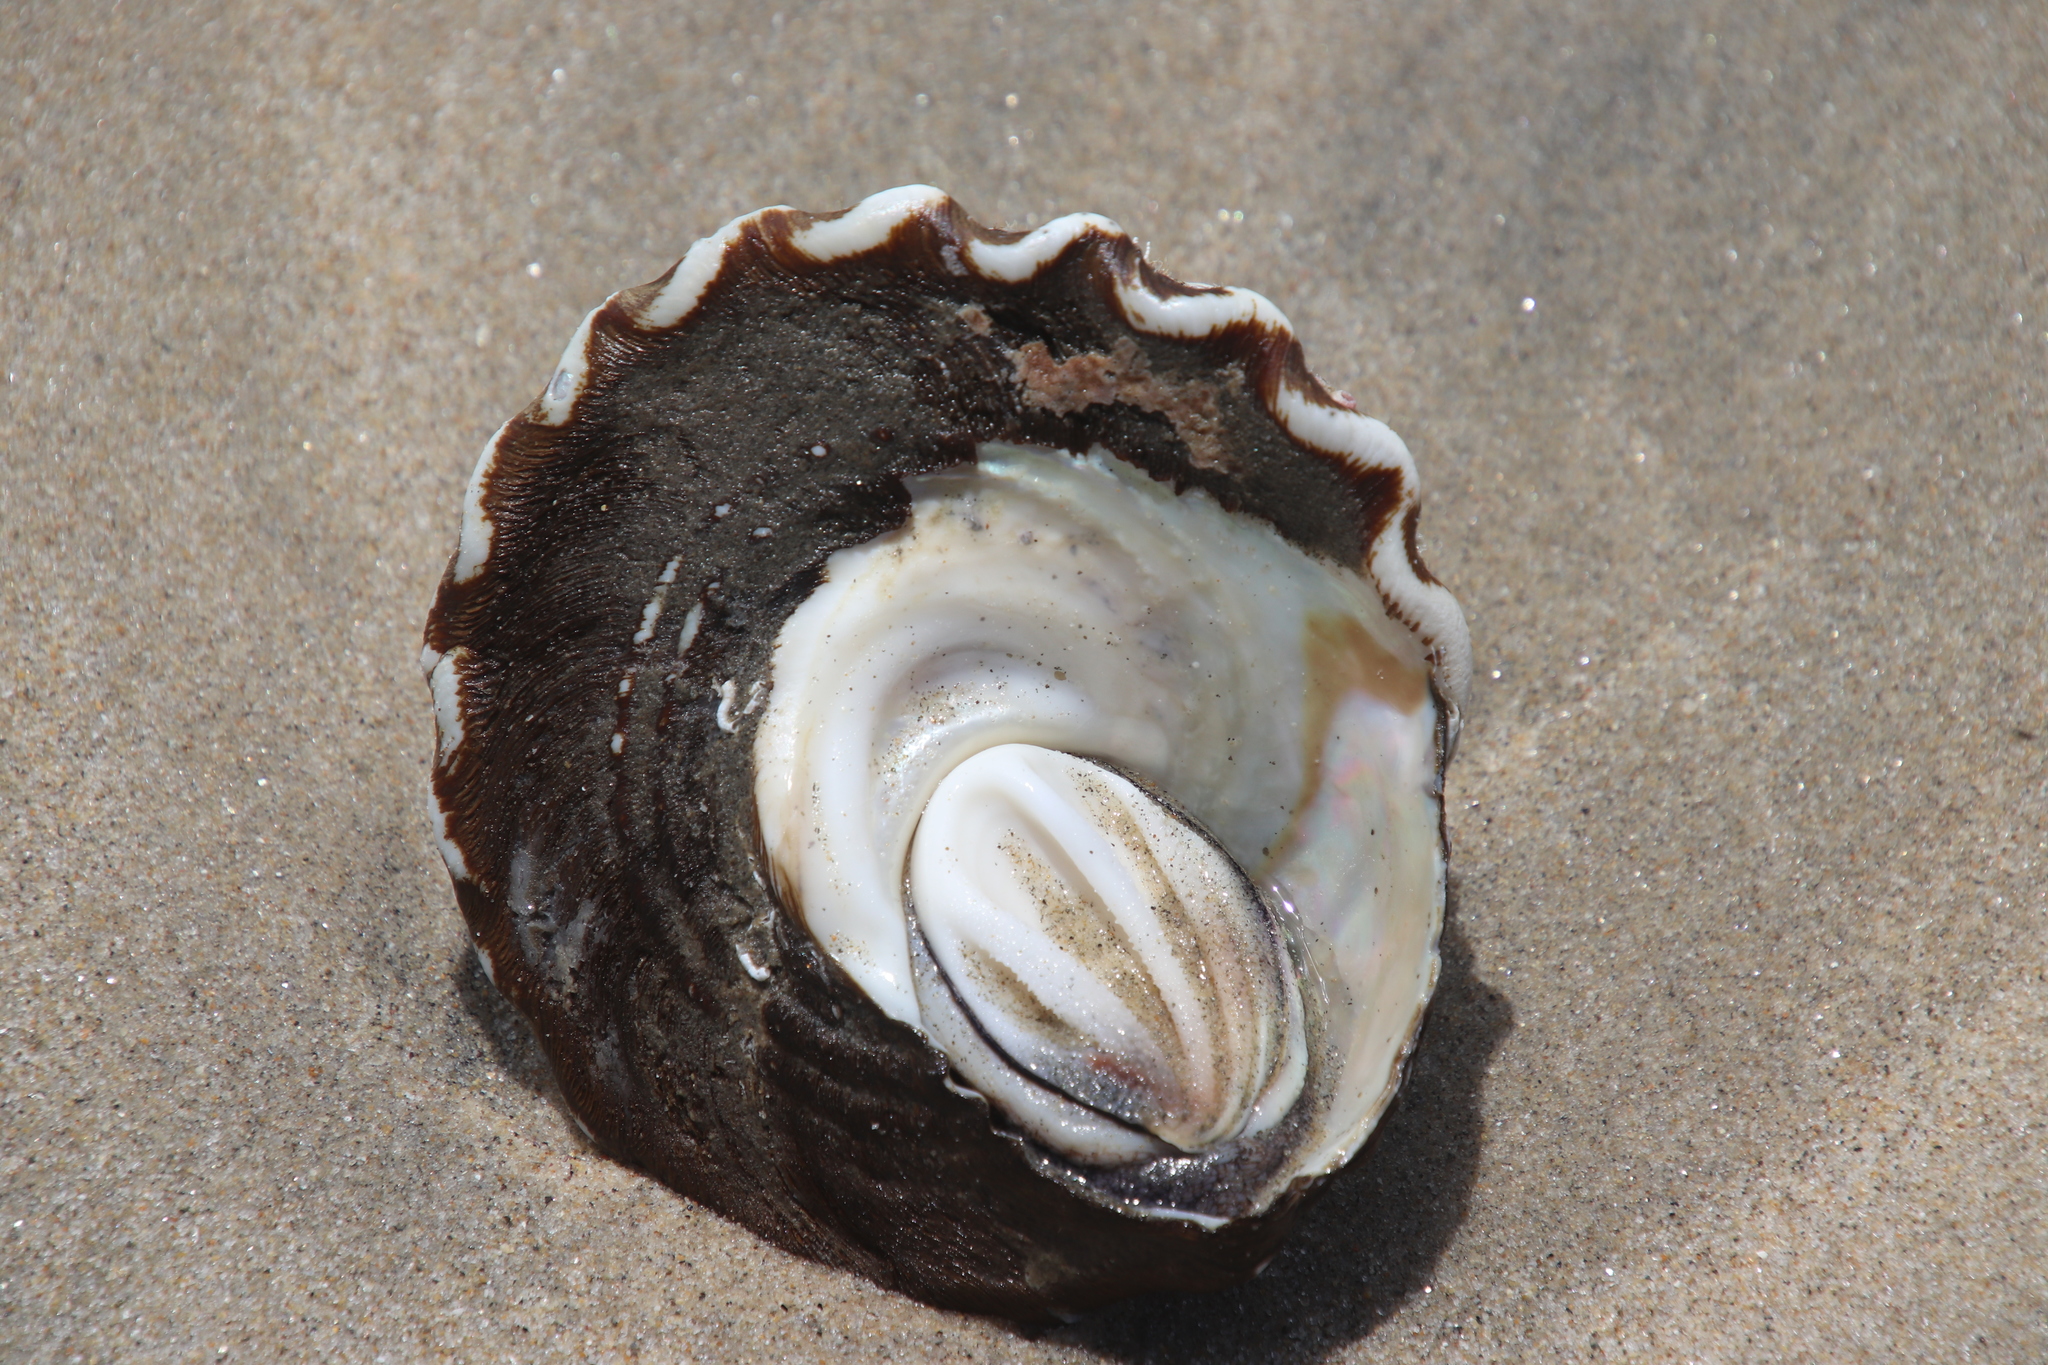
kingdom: Animalia
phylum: Mollusca
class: Gastropoda
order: Trochida
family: Turbinidae
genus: Megastraea
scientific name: Megastraea undosa
